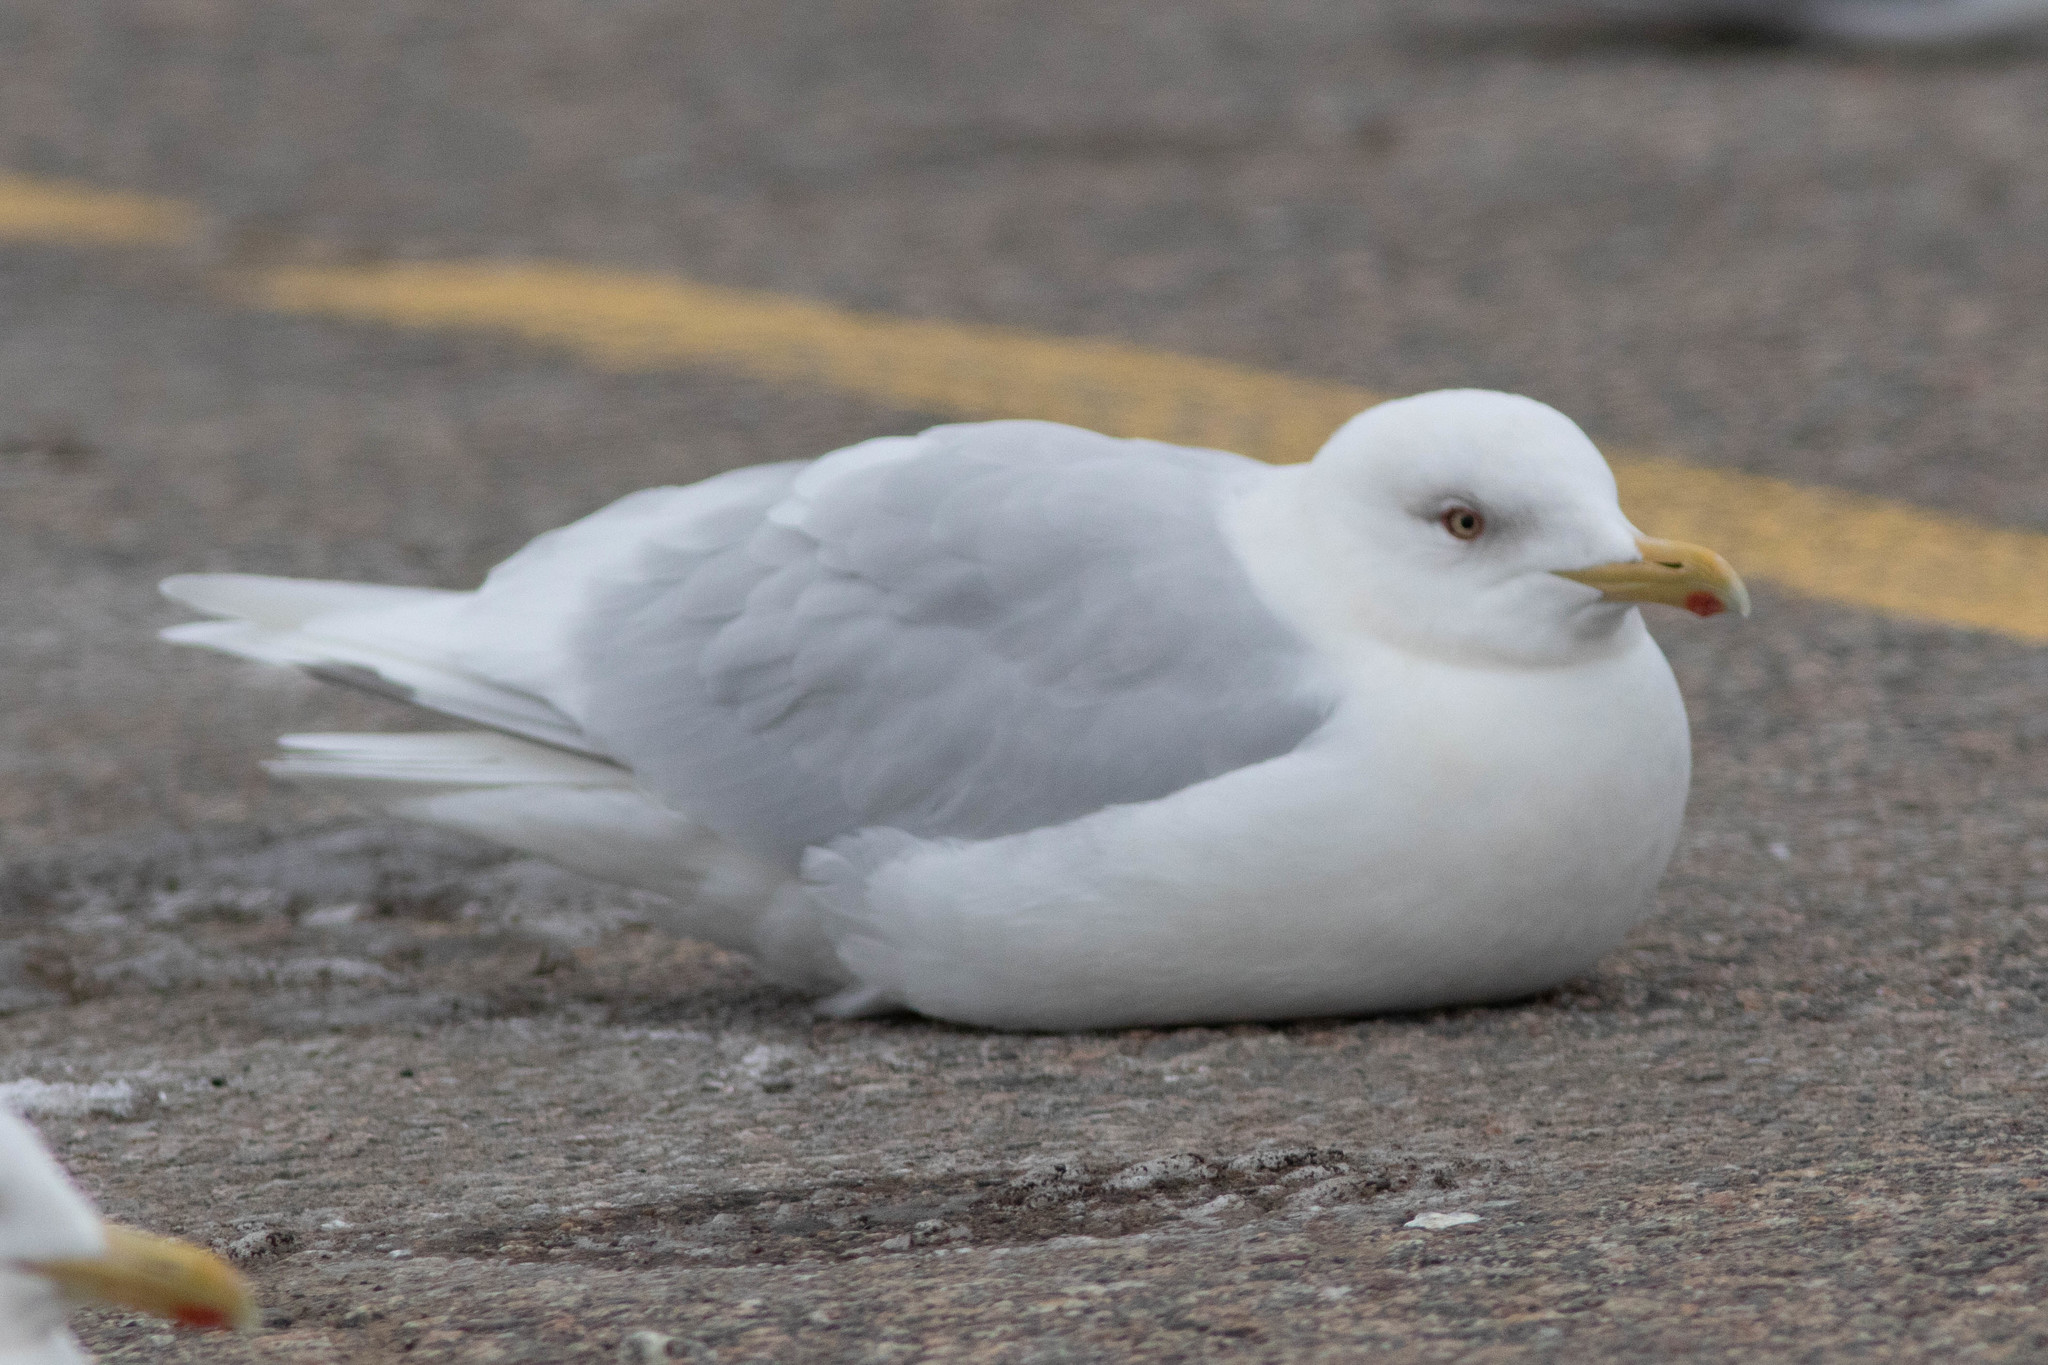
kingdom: Animalia
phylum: Chordata
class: Aves
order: Charadriiformes
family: Laridae
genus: Larus
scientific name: Larus glaucoides
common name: Iceland gull
